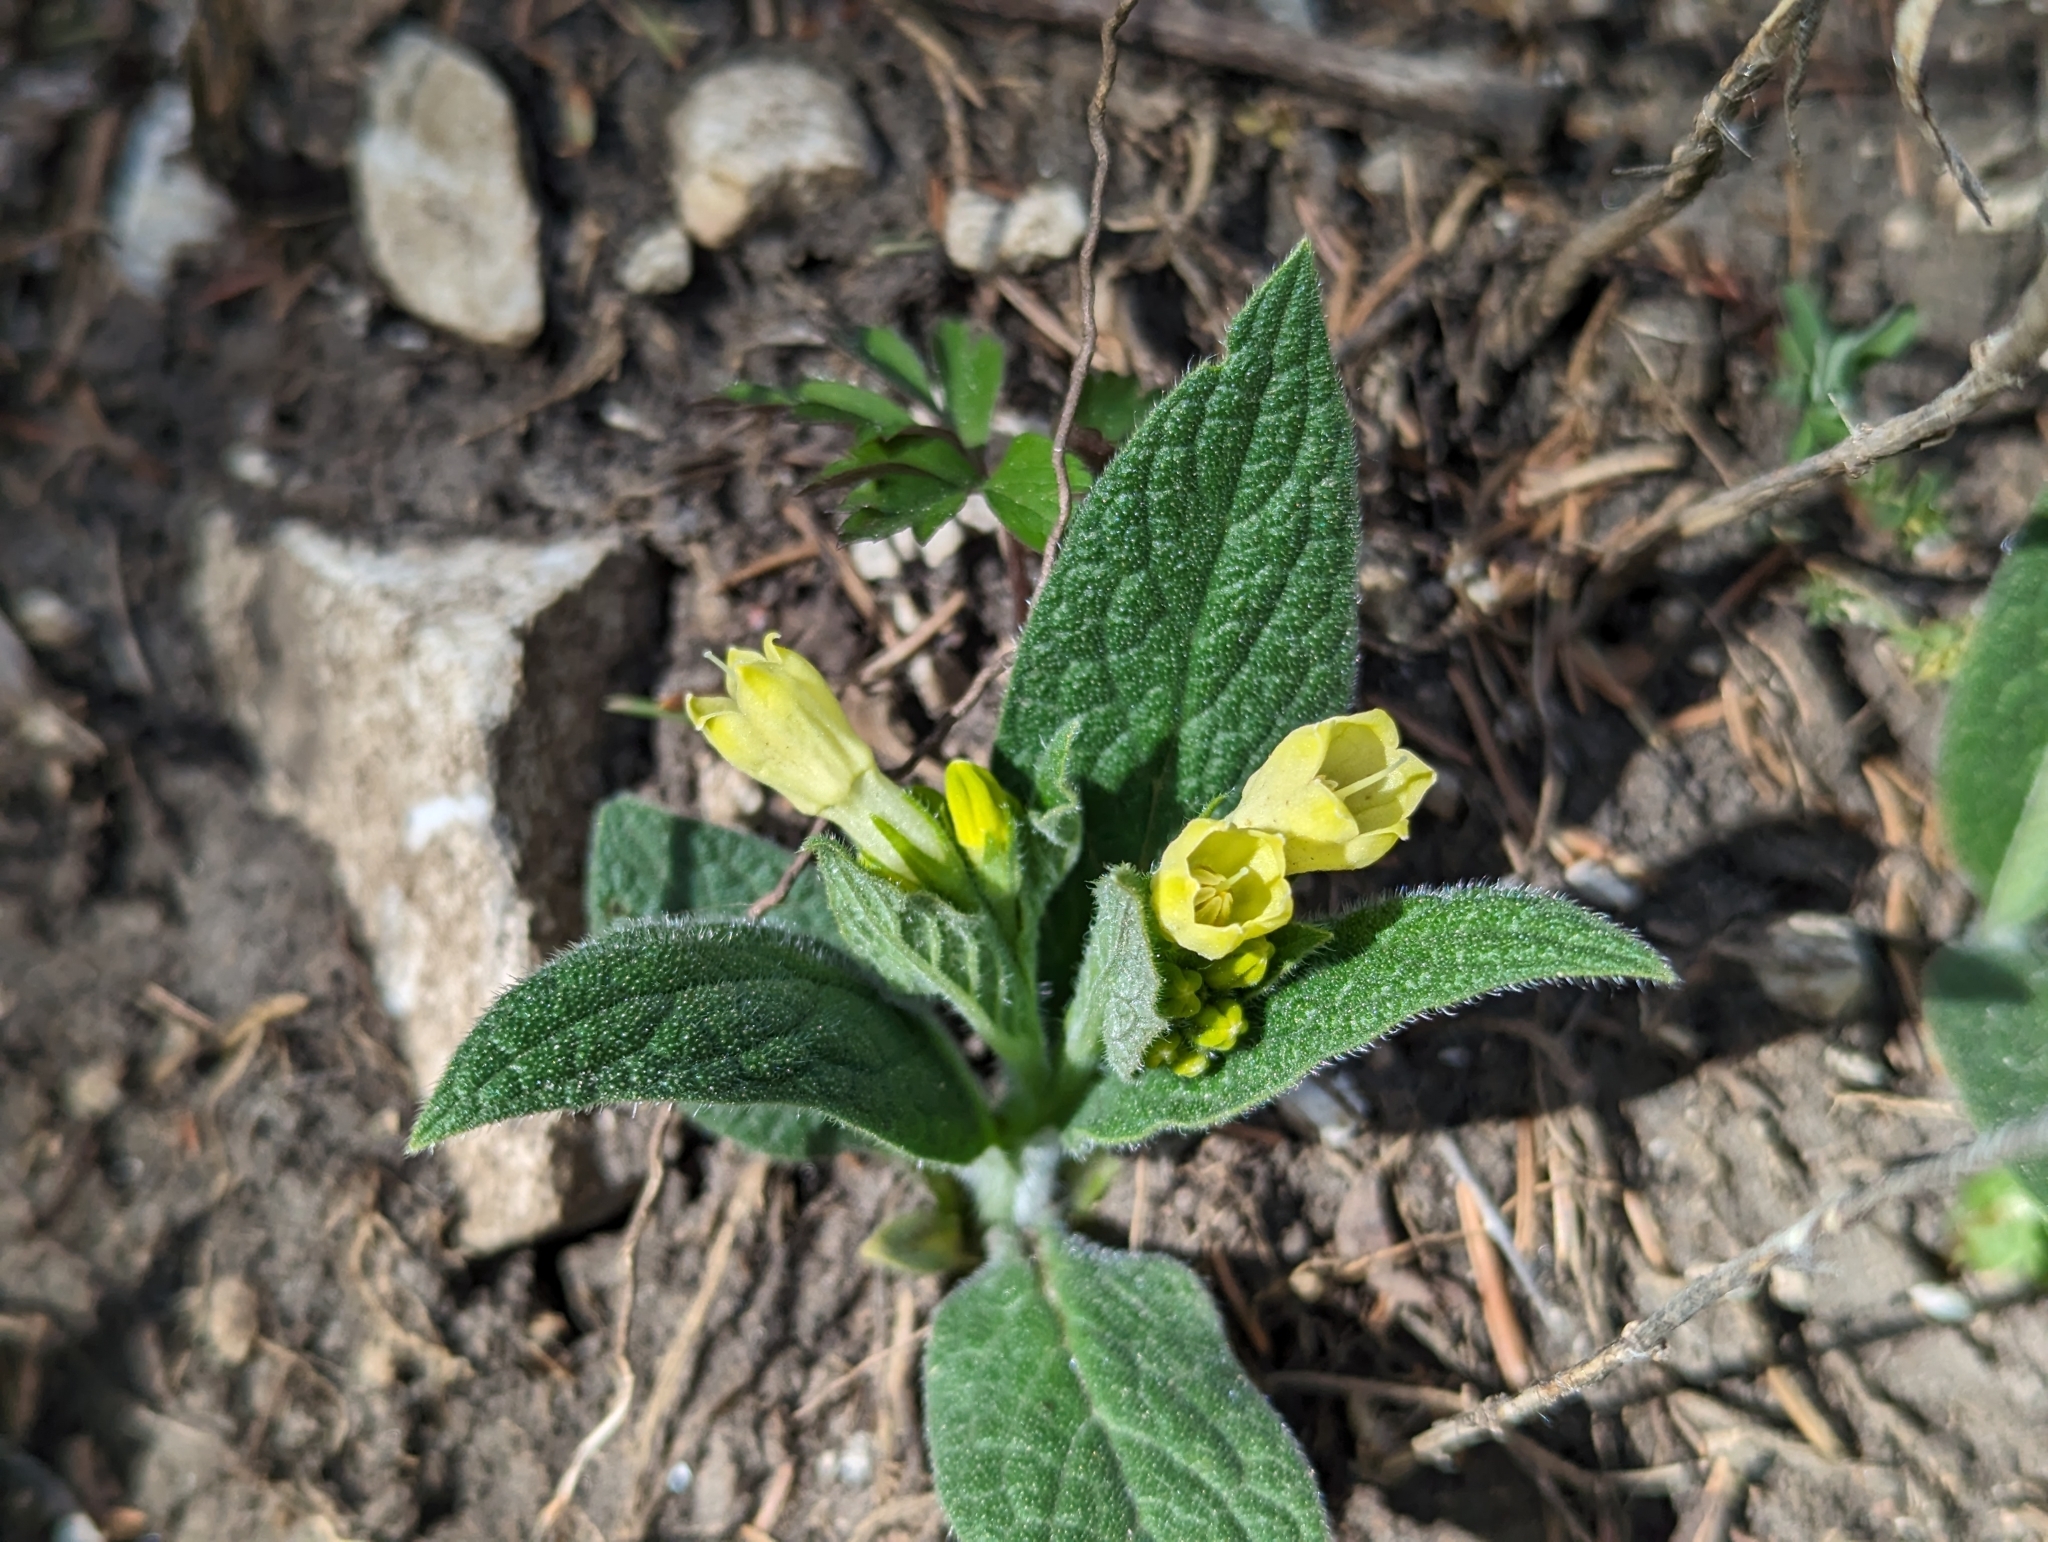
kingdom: Plantae
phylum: Tracheophyta
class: Magnoliopsida
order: Boraginales
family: Boraginaceae
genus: Symphytum
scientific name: Symphytum tuberosum
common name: Tuberous comfrey
